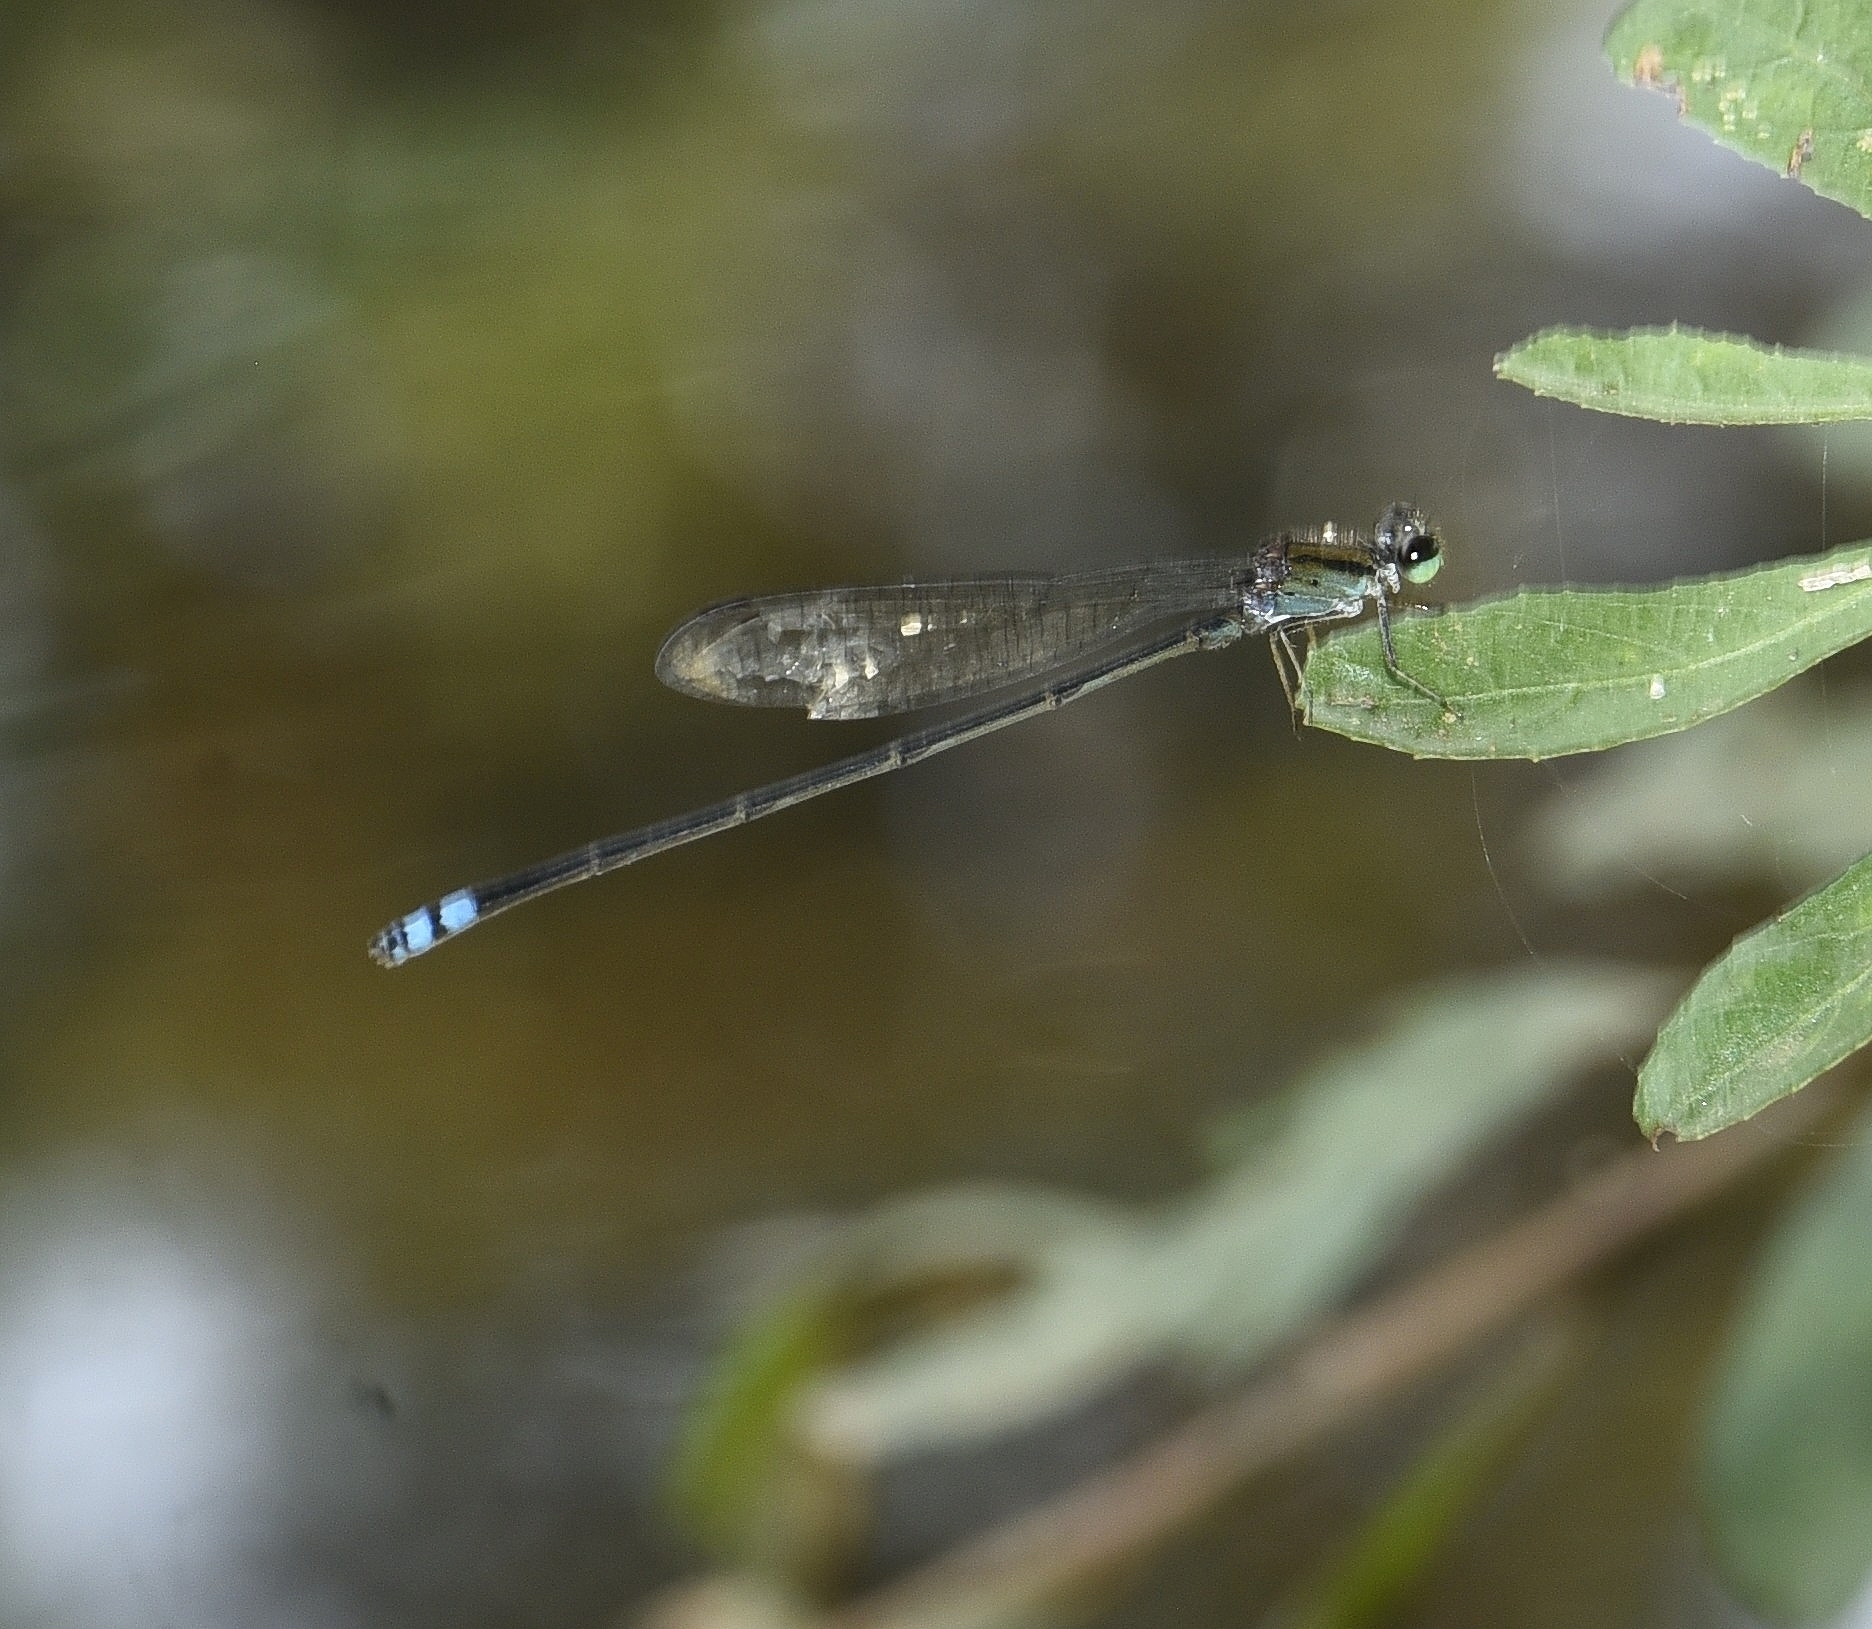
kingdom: Animalia
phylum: Arthropoda
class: Insecta
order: Odonata
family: Coenagrionidae
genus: Pseudagrion
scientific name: Pseudagrion indicum
